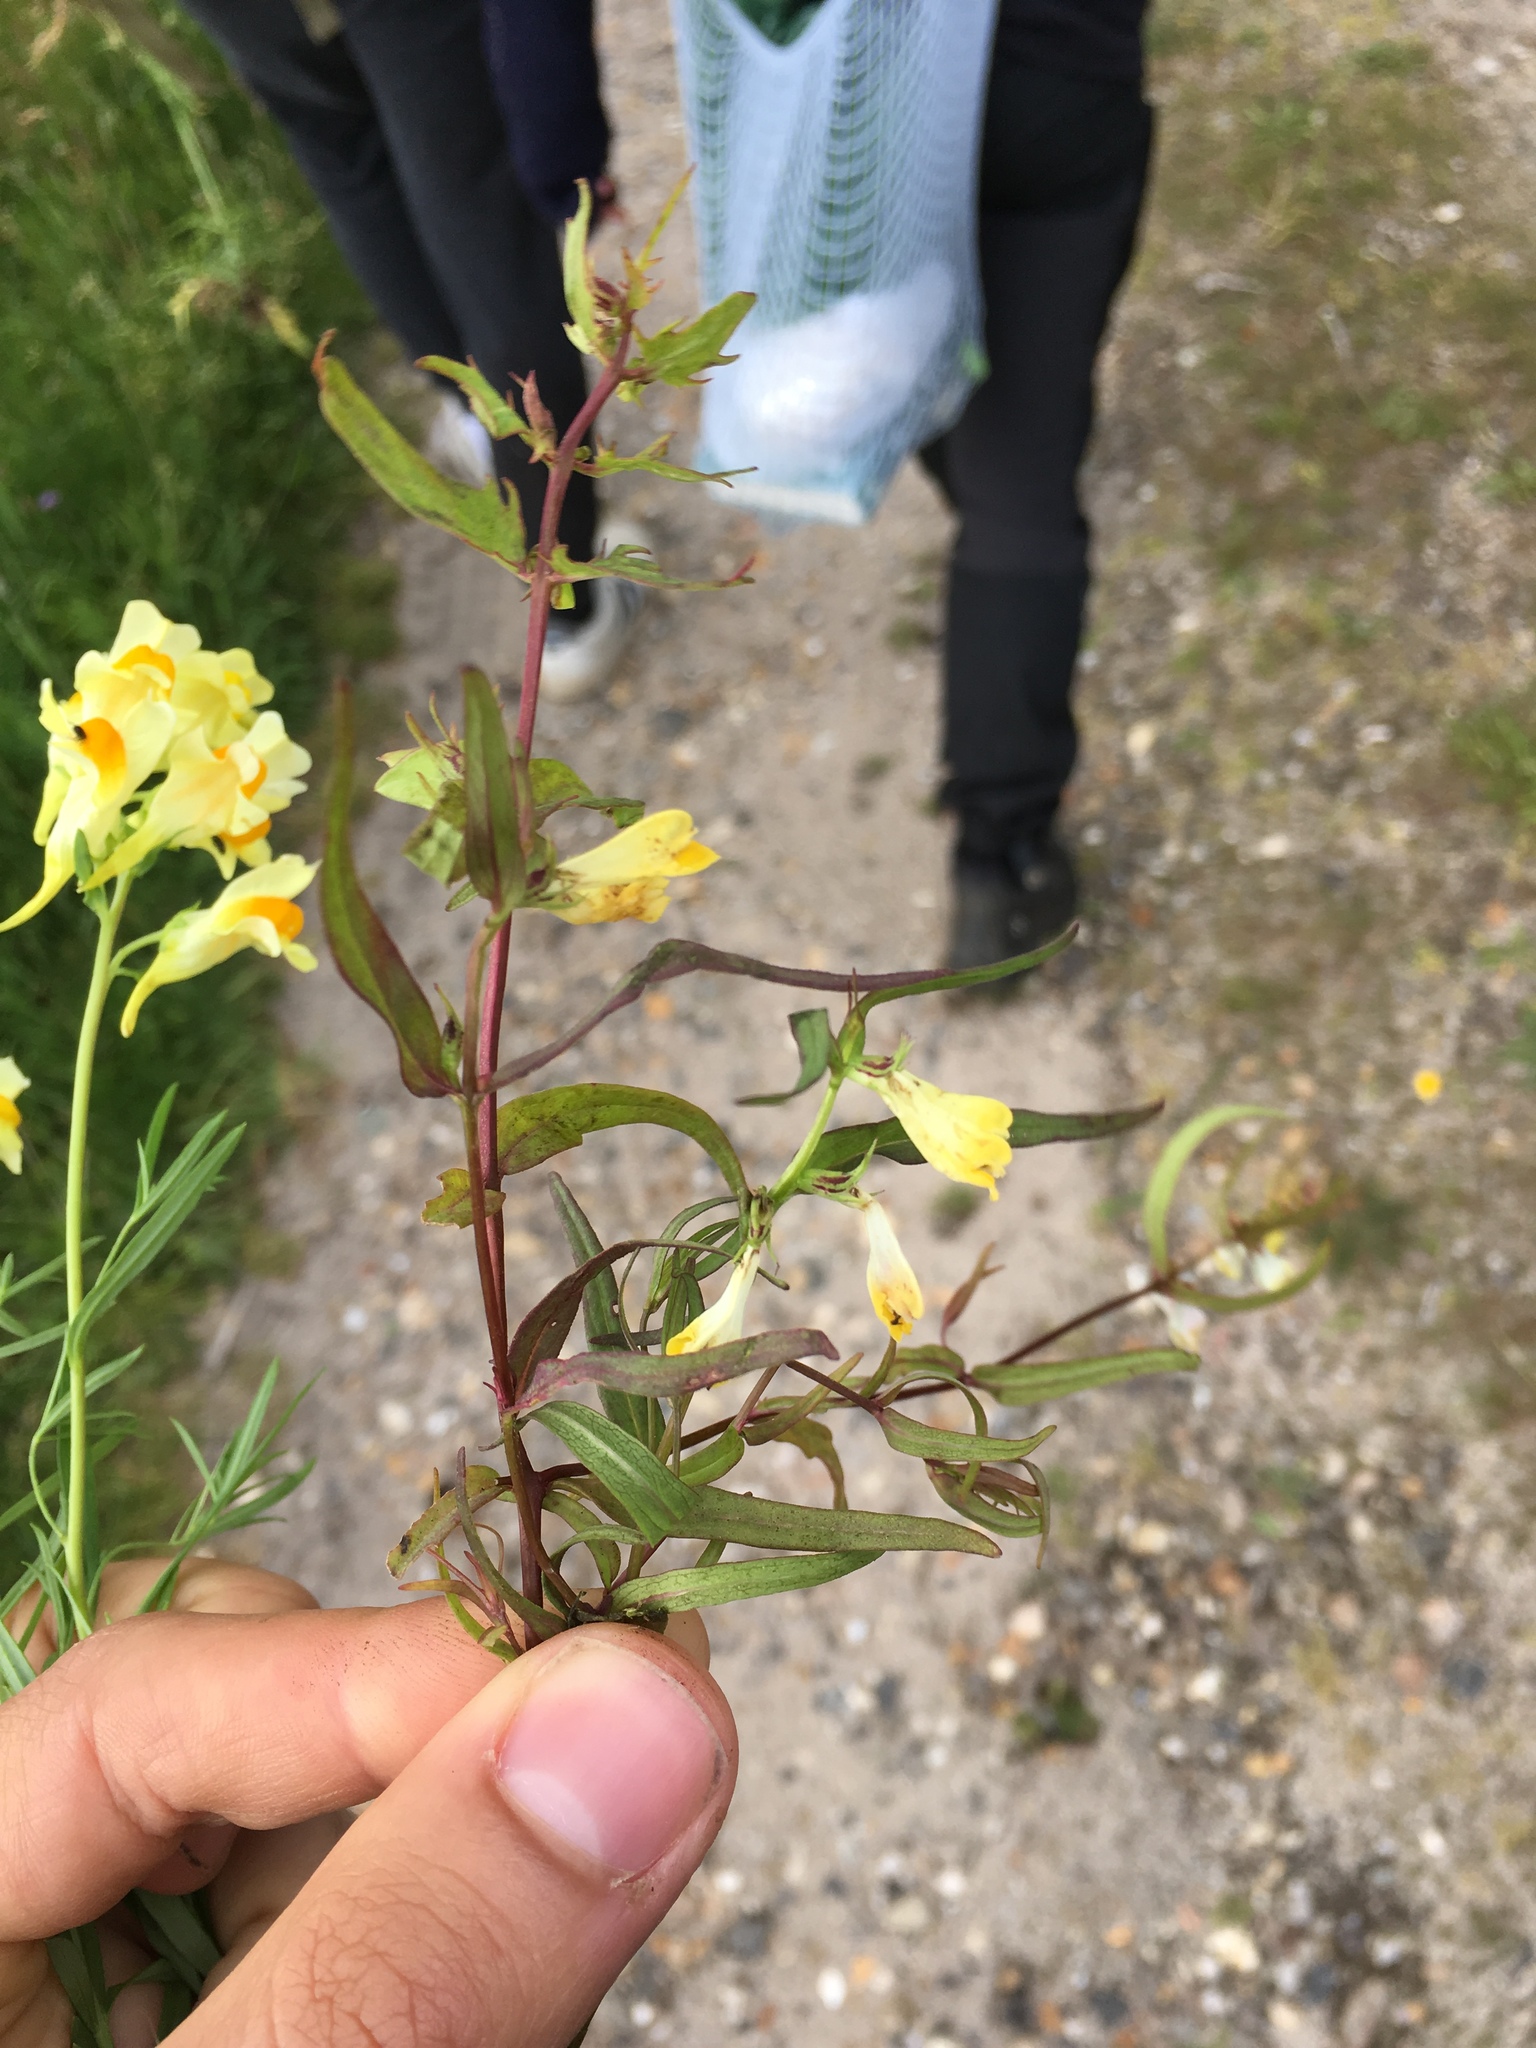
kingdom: Plantae
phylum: Tracheophyta
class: Magnoliopsida
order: Lamiales
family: Orobanchaceae
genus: Melampyrum
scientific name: Melampyrum pratense
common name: Common cow-wheat
